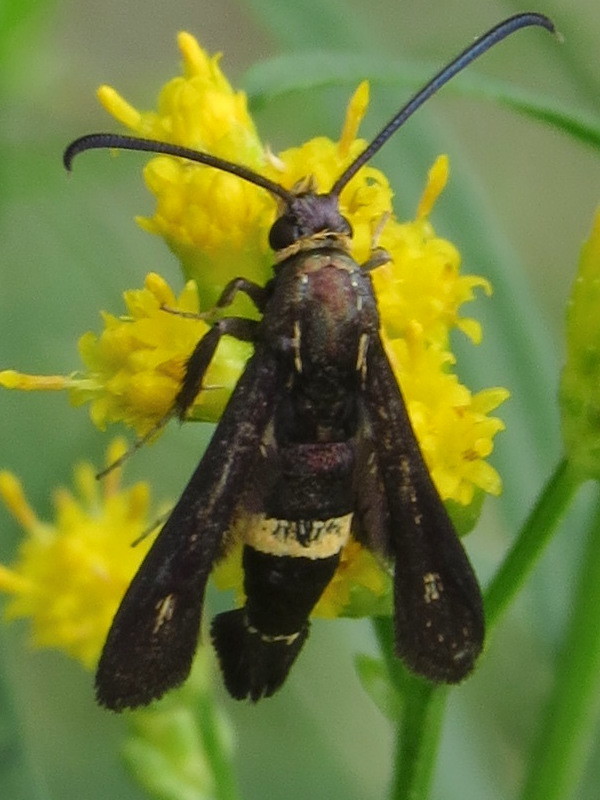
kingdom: Animalia
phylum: Arthropoda
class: Insecta
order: Lepidoptera
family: Sesiidae
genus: Carmenta
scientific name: Carmenta pyralidiformis
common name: Boneset borer moth
